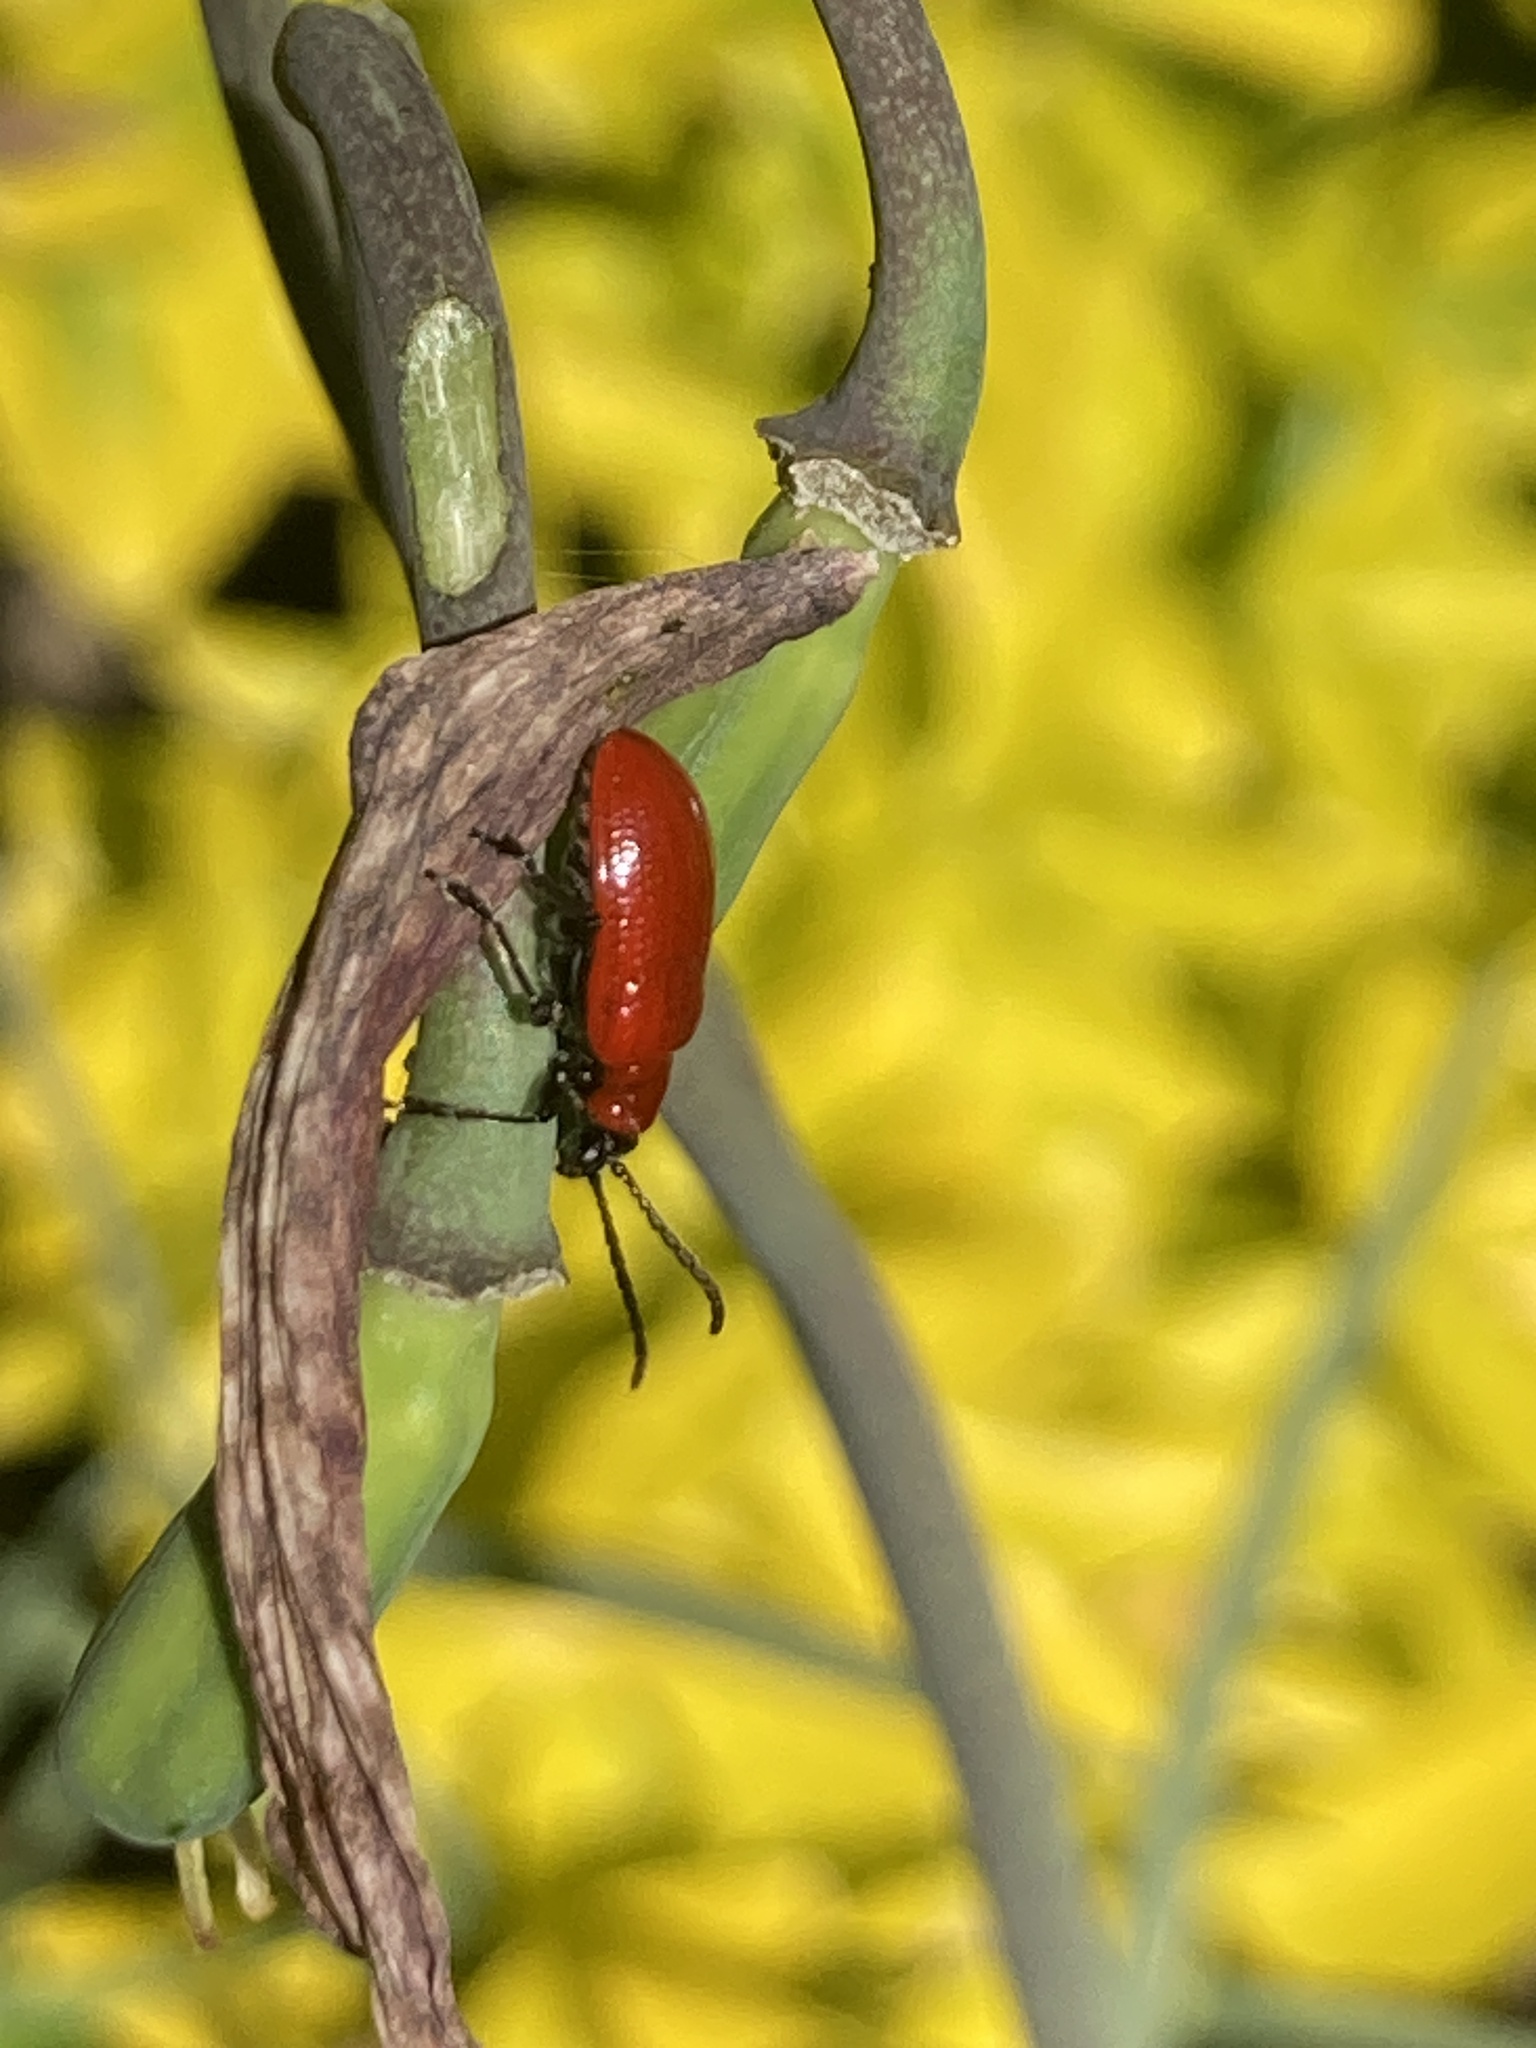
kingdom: Animalia
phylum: Arthropoda
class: Insecta
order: Coleoptera
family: Chrysomelidae
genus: Lilioceris
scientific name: Lilioceris lilii
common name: Lily beetle
